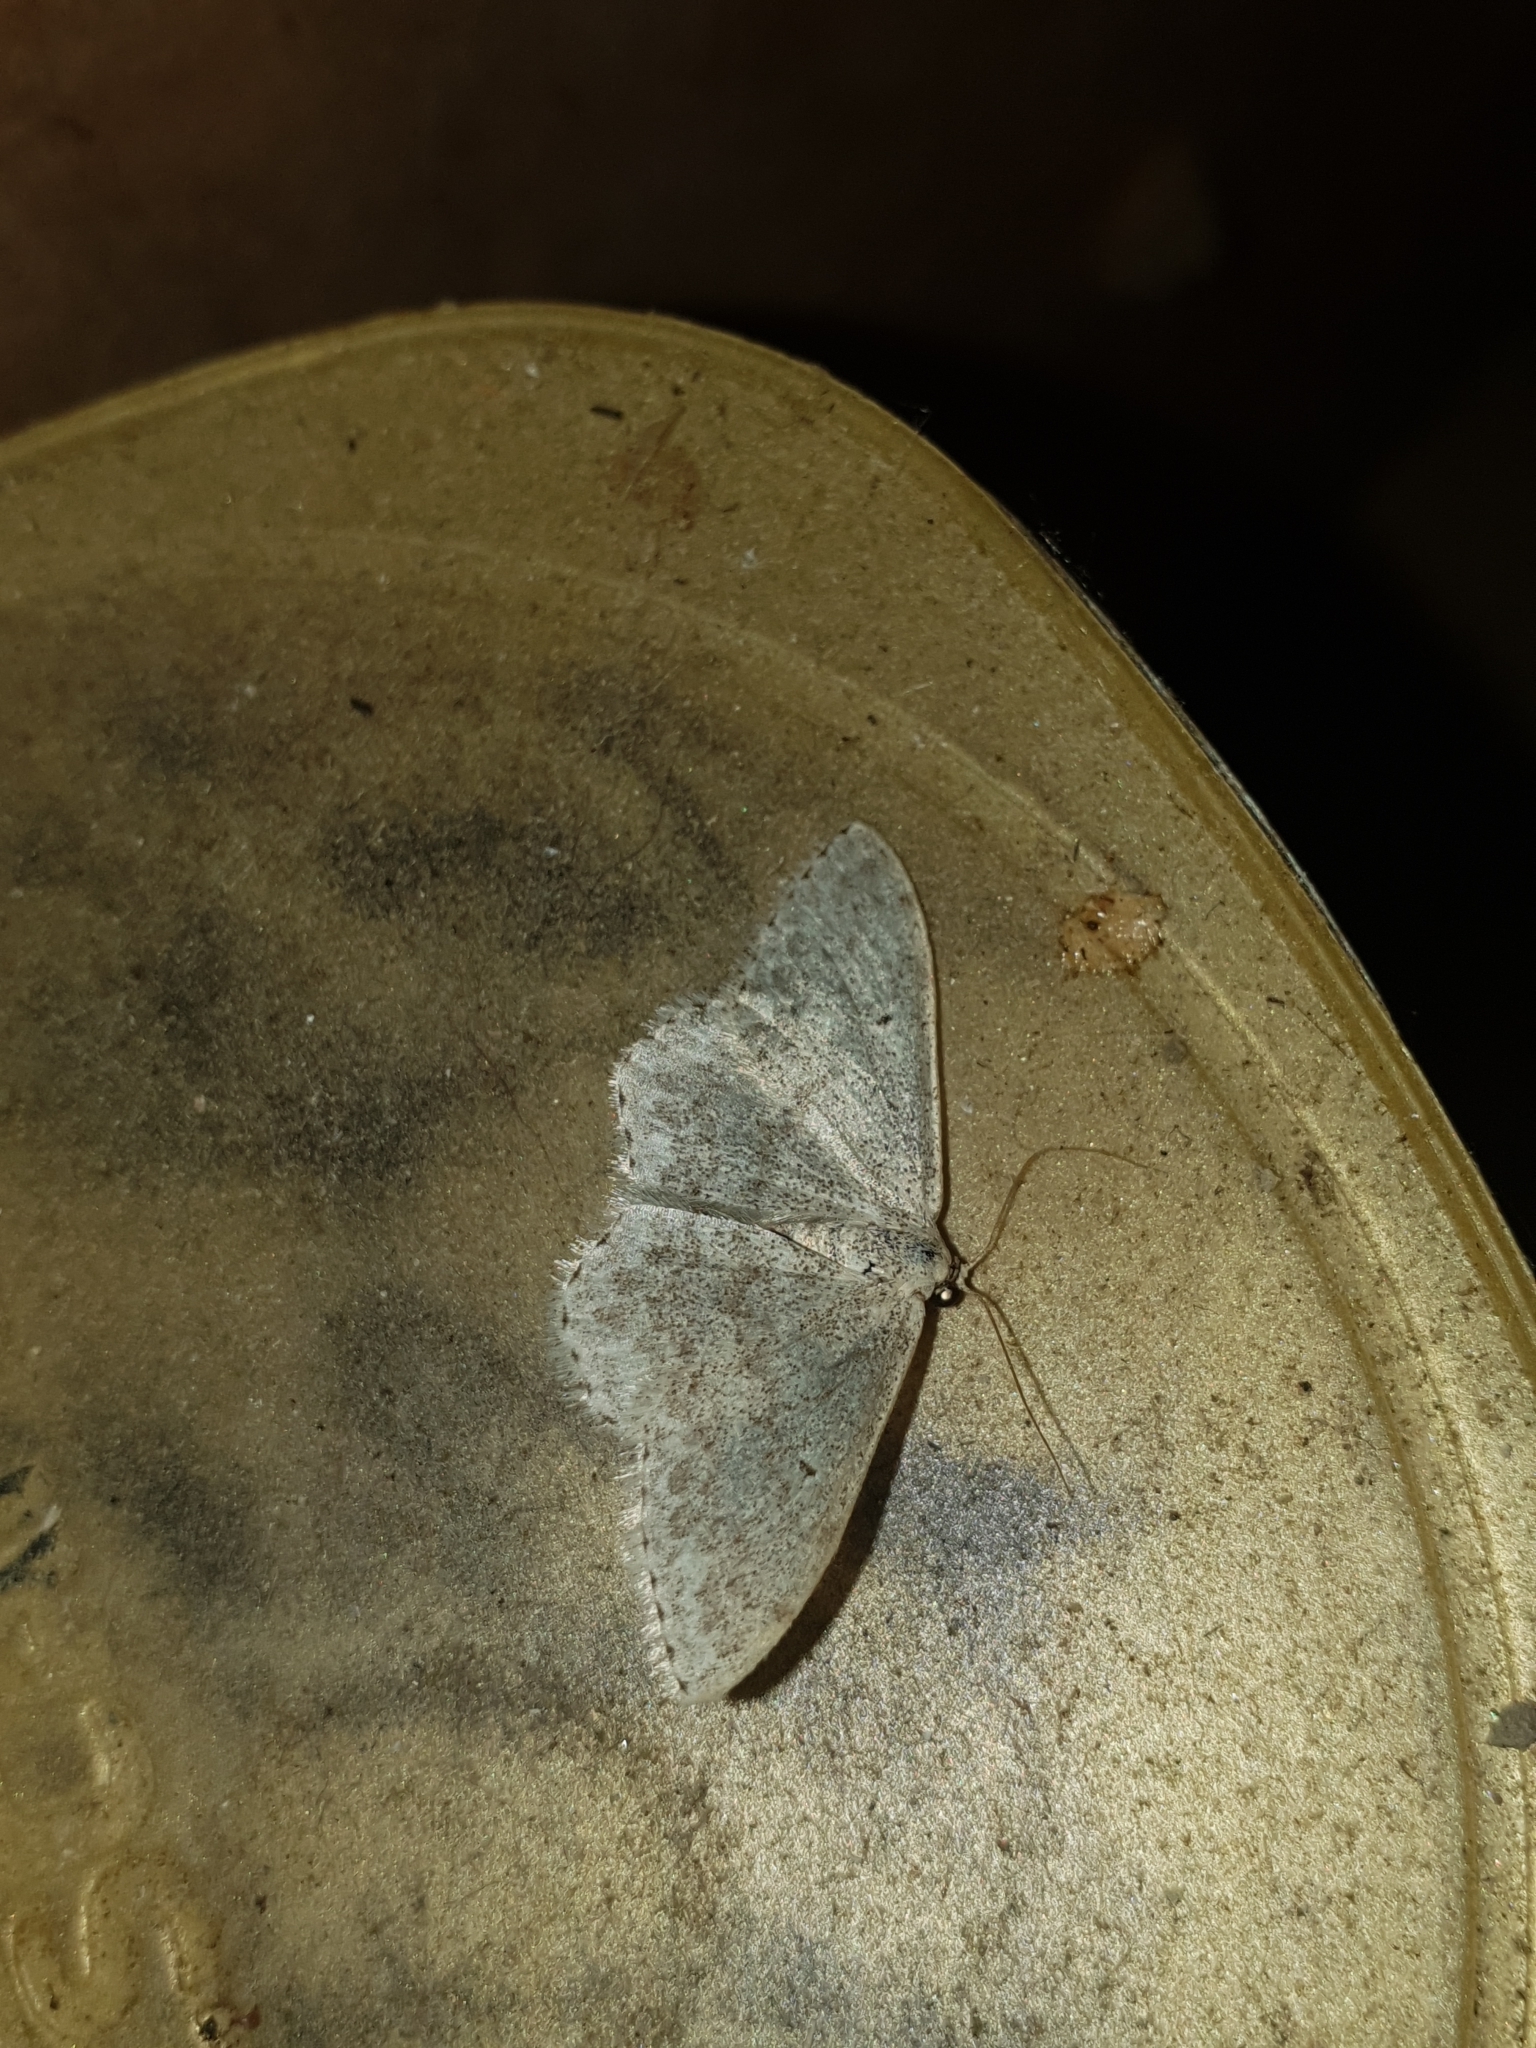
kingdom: Animalia
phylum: Arthropoda
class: Insecta
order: Lepidoptera
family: Geometridae
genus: Scopula
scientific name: Scopula marginepunctata
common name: Mullein wave
